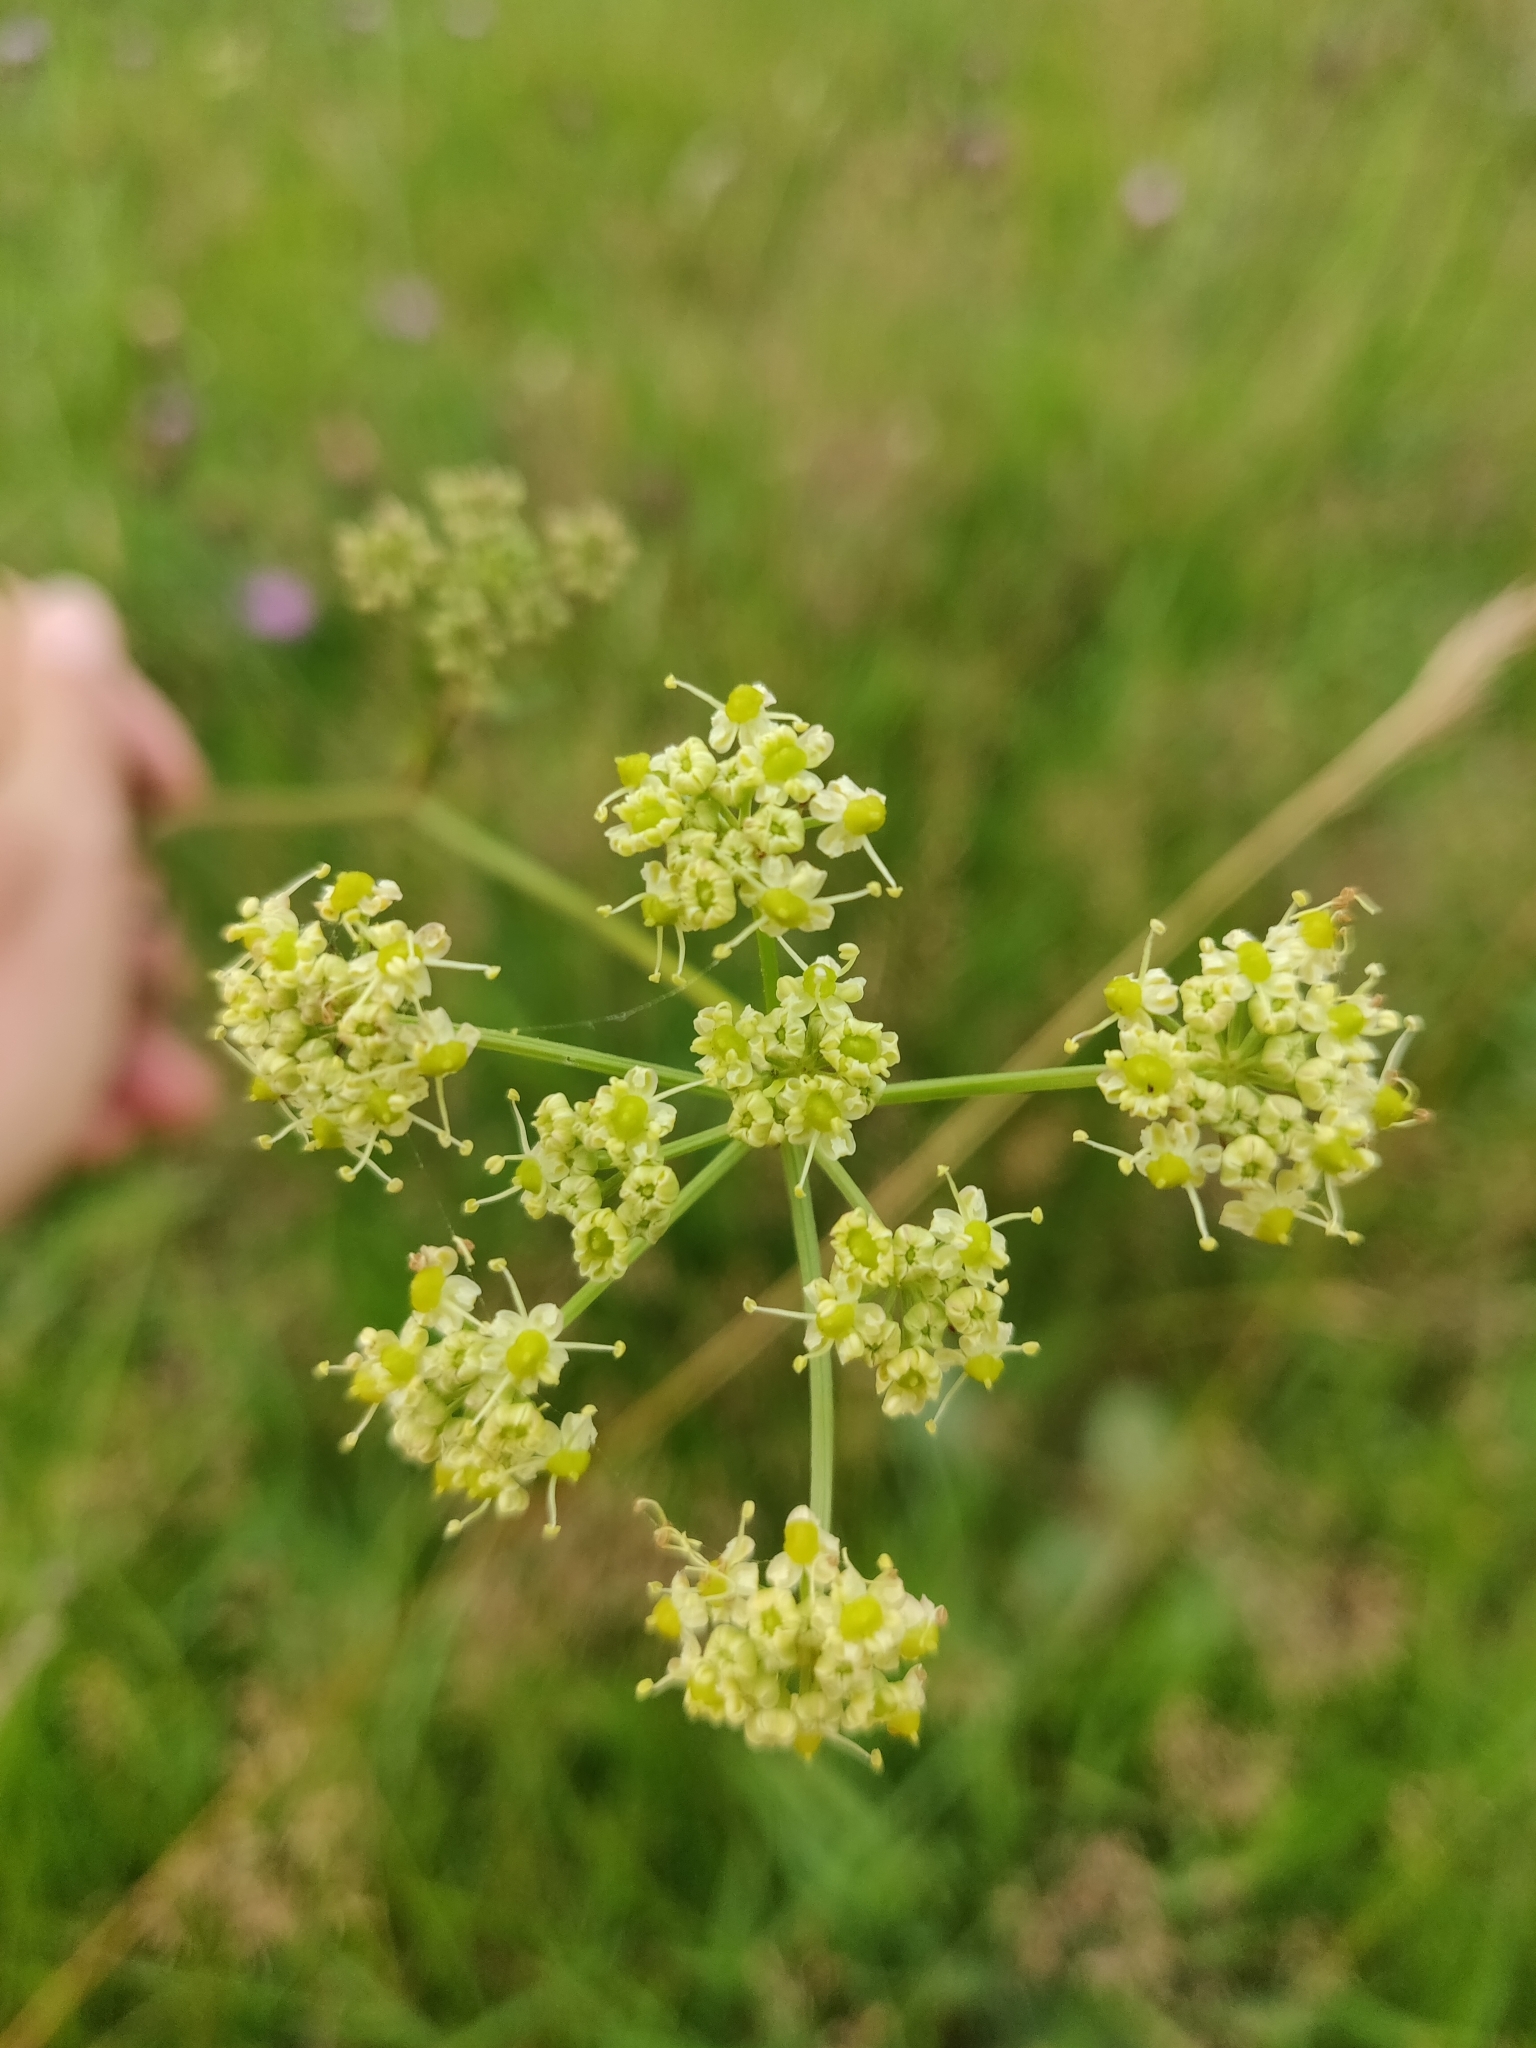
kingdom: Plantae
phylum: Tracheophyta
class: Magnoliopsida
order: Apiales
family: Apiaceae
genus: Silaum
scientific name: Silaum silaus
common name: Pepper-saxifrage
